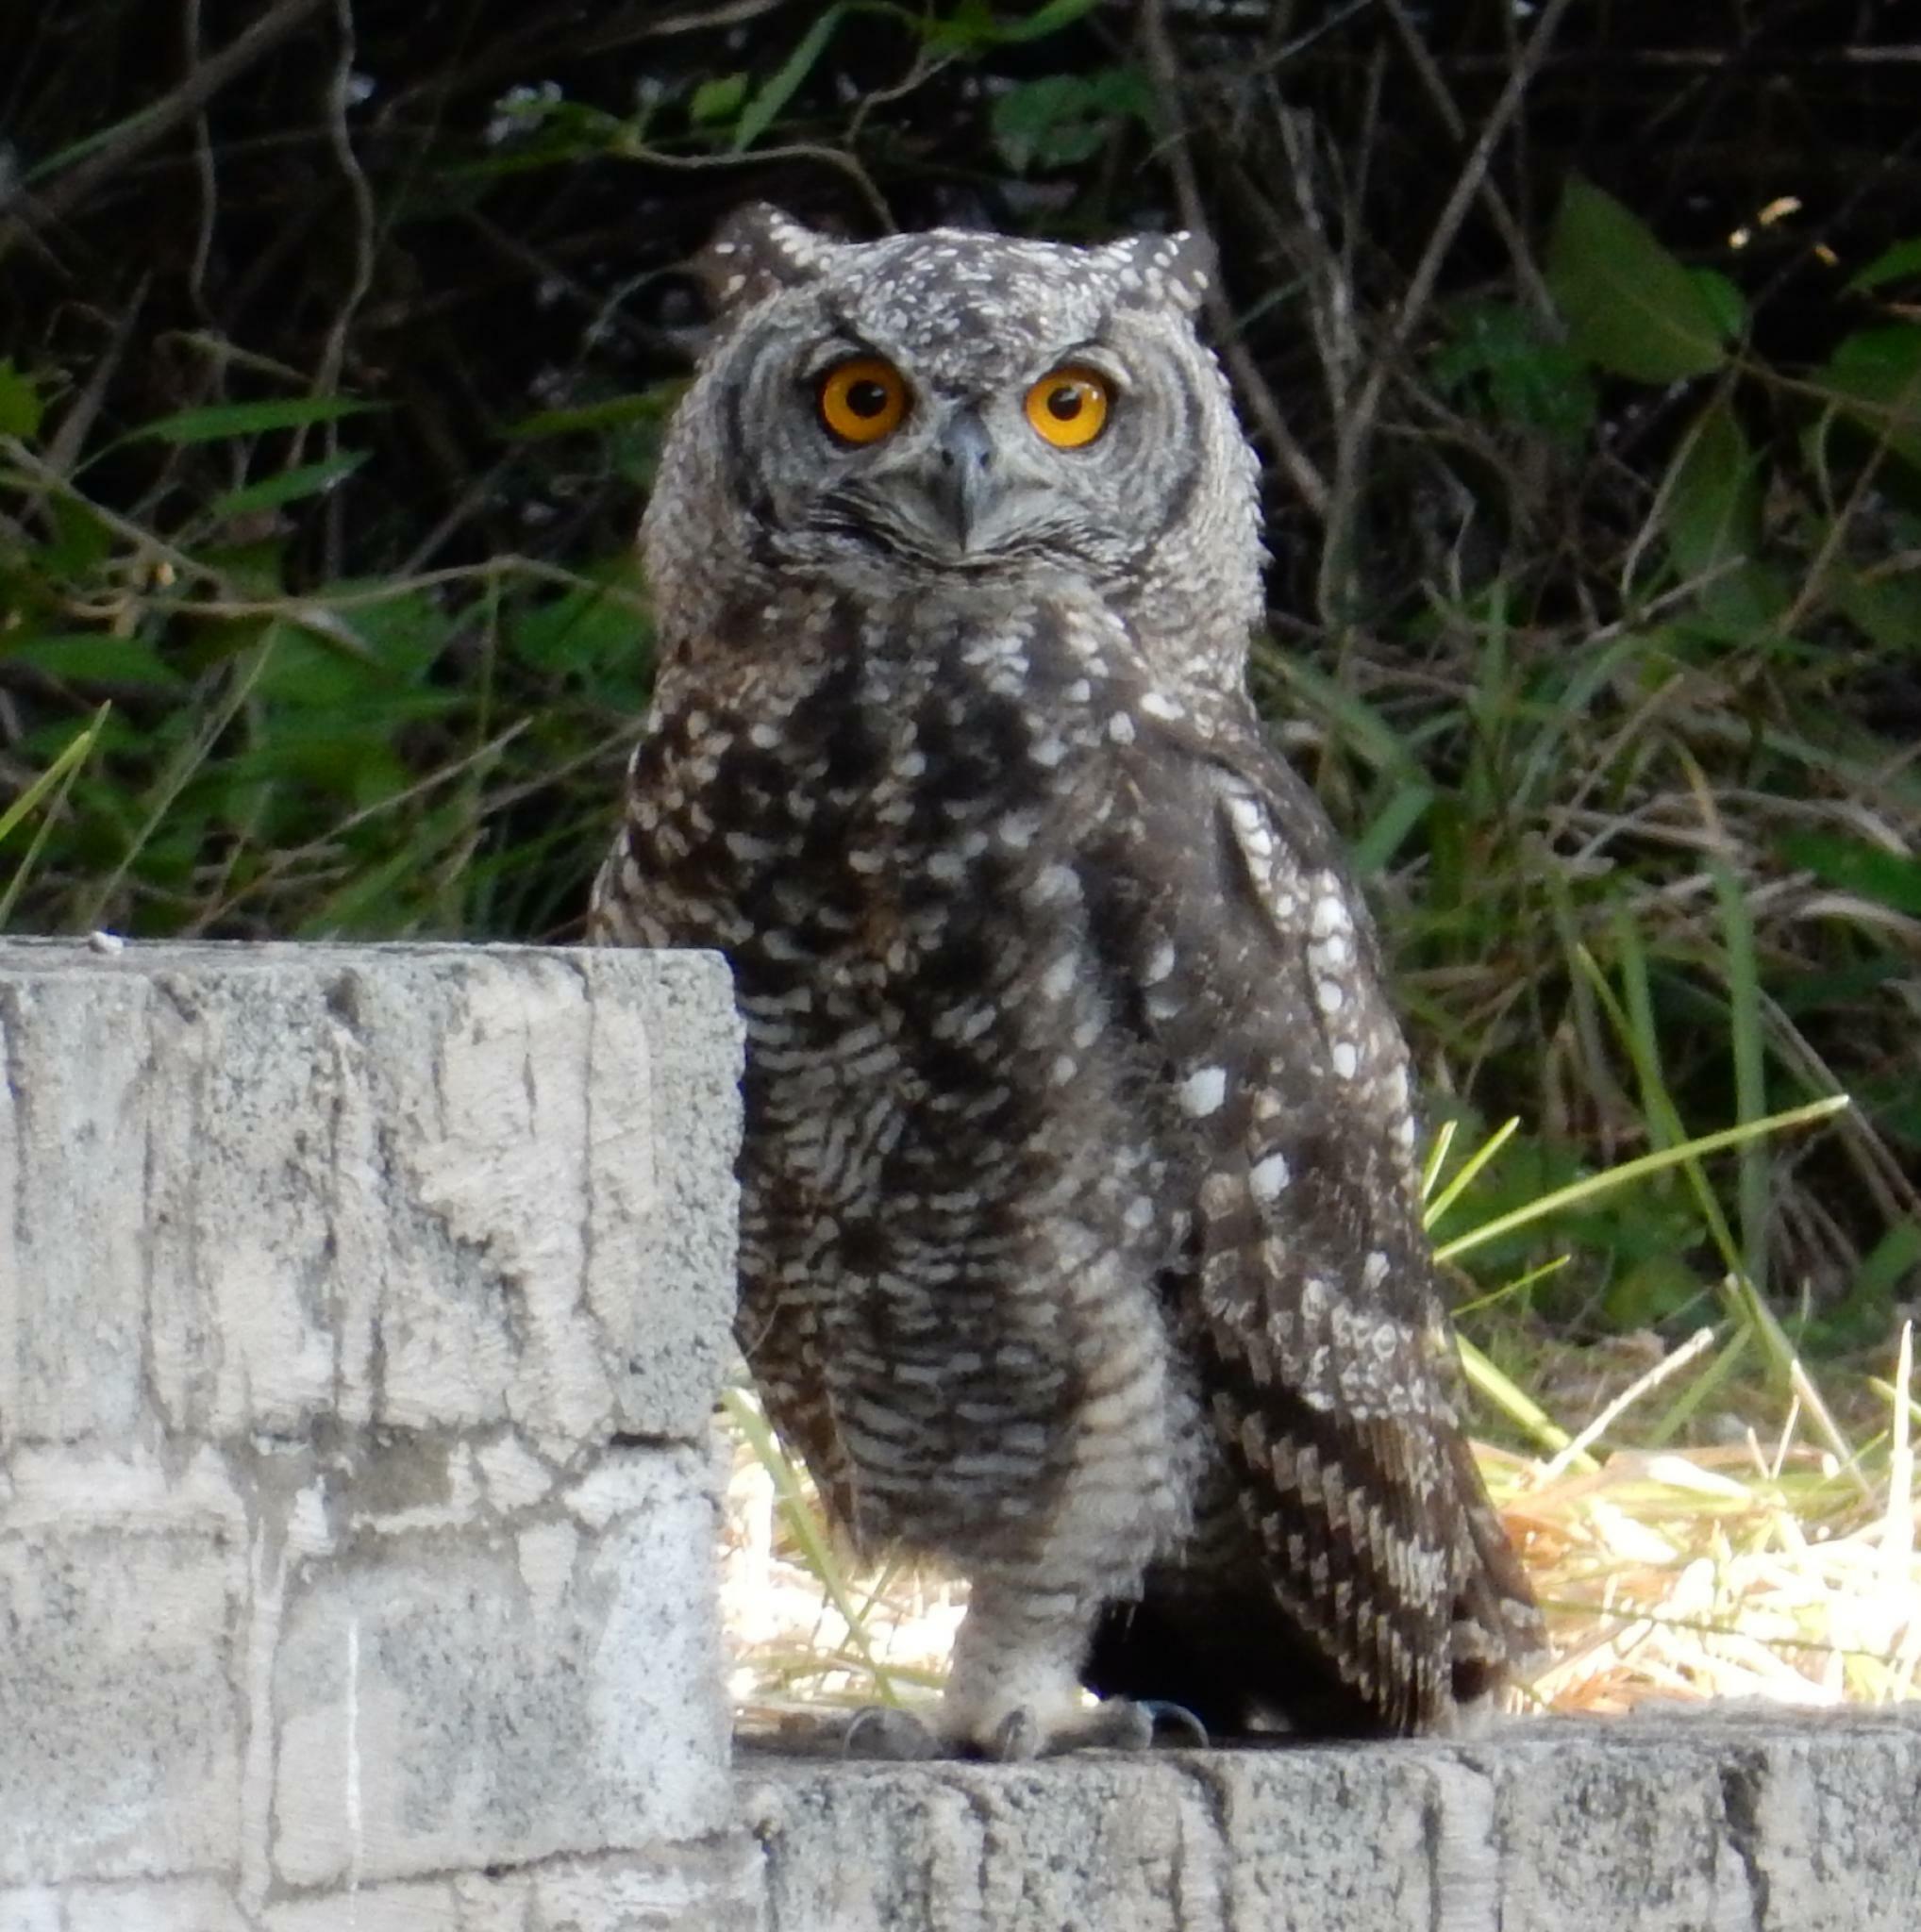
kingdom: Animalia
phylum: Chordata
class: Aves
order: Strigiformes
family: Strigidae
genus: Bubo
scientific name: Bubo africanus
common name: Spotted eagle-owl
